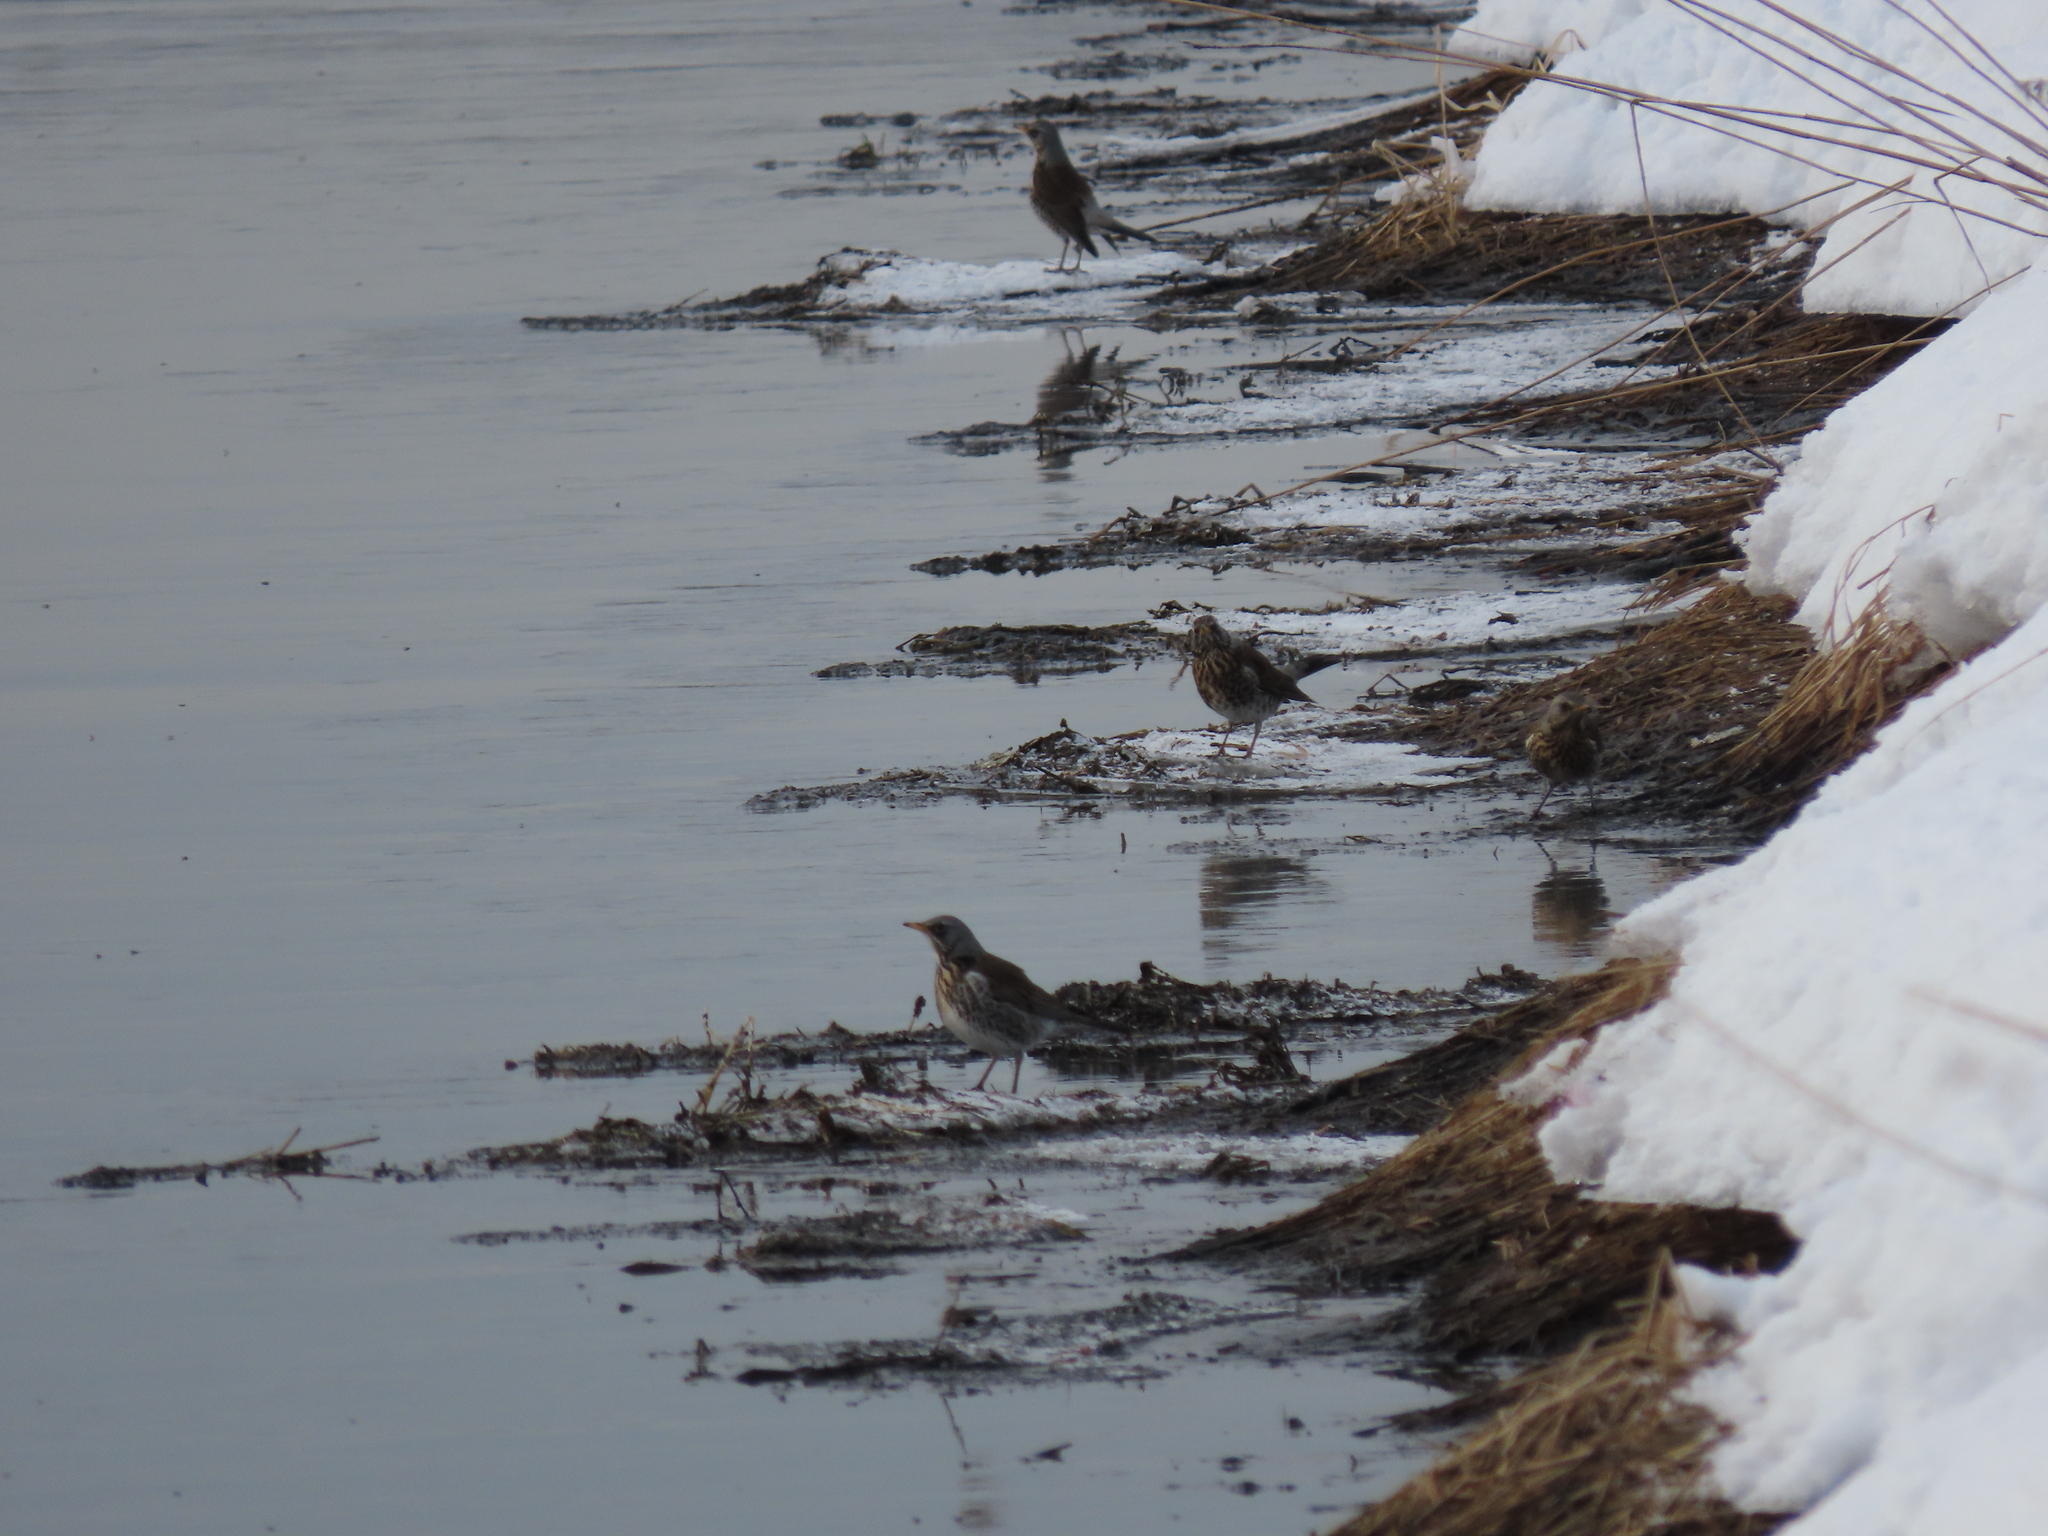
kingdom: Animalia
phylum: Chordata
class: Aves
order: Passeriformes
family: Turdidae
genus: Turdus
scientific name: Turdus pilaris
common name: Fieldfare
